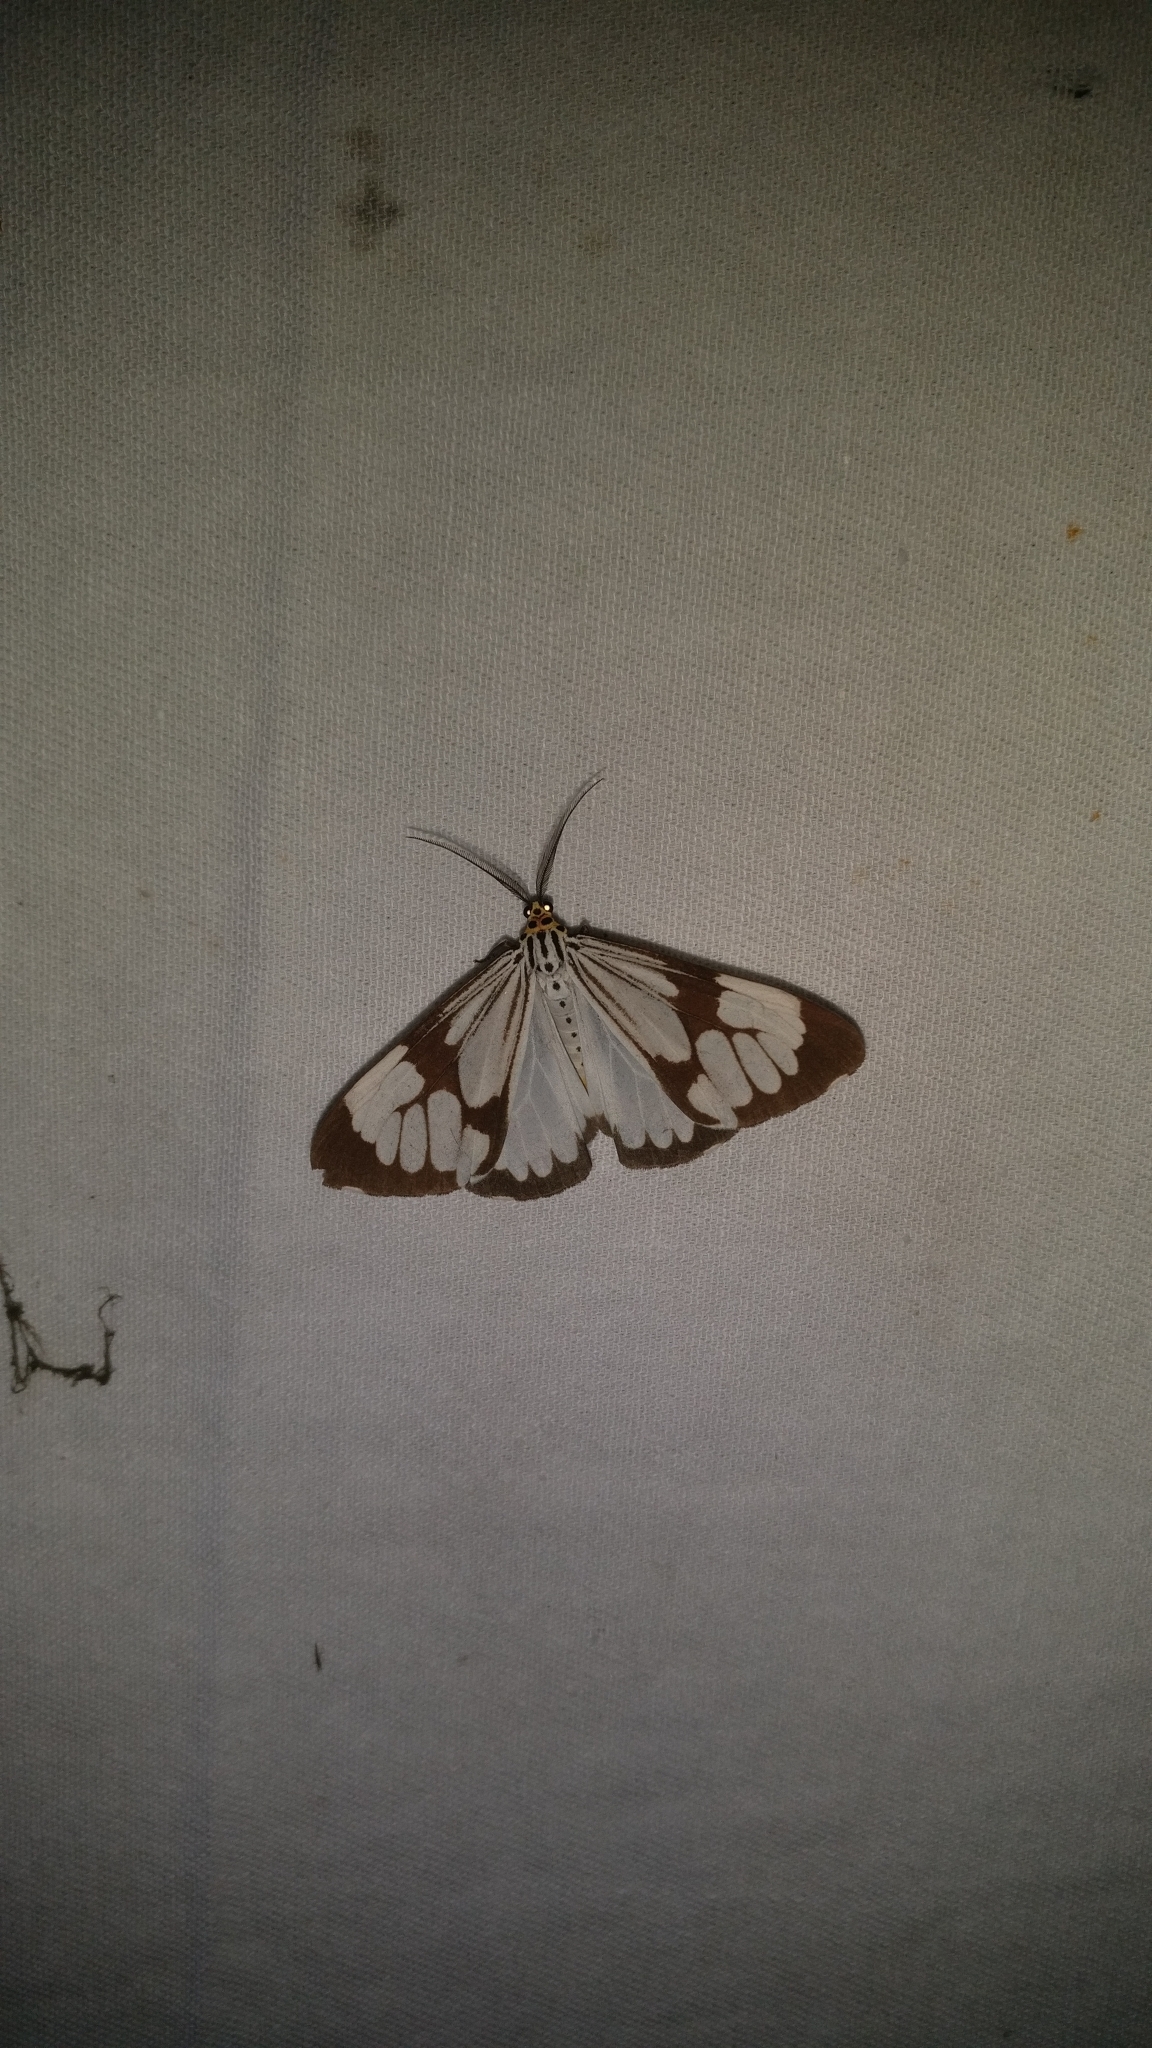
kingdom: Animalia
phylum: Arthropoda
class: Insecta
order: Lepidoptera
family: Erebidae
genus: Nyctemera
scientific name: Nyctemera coleta
